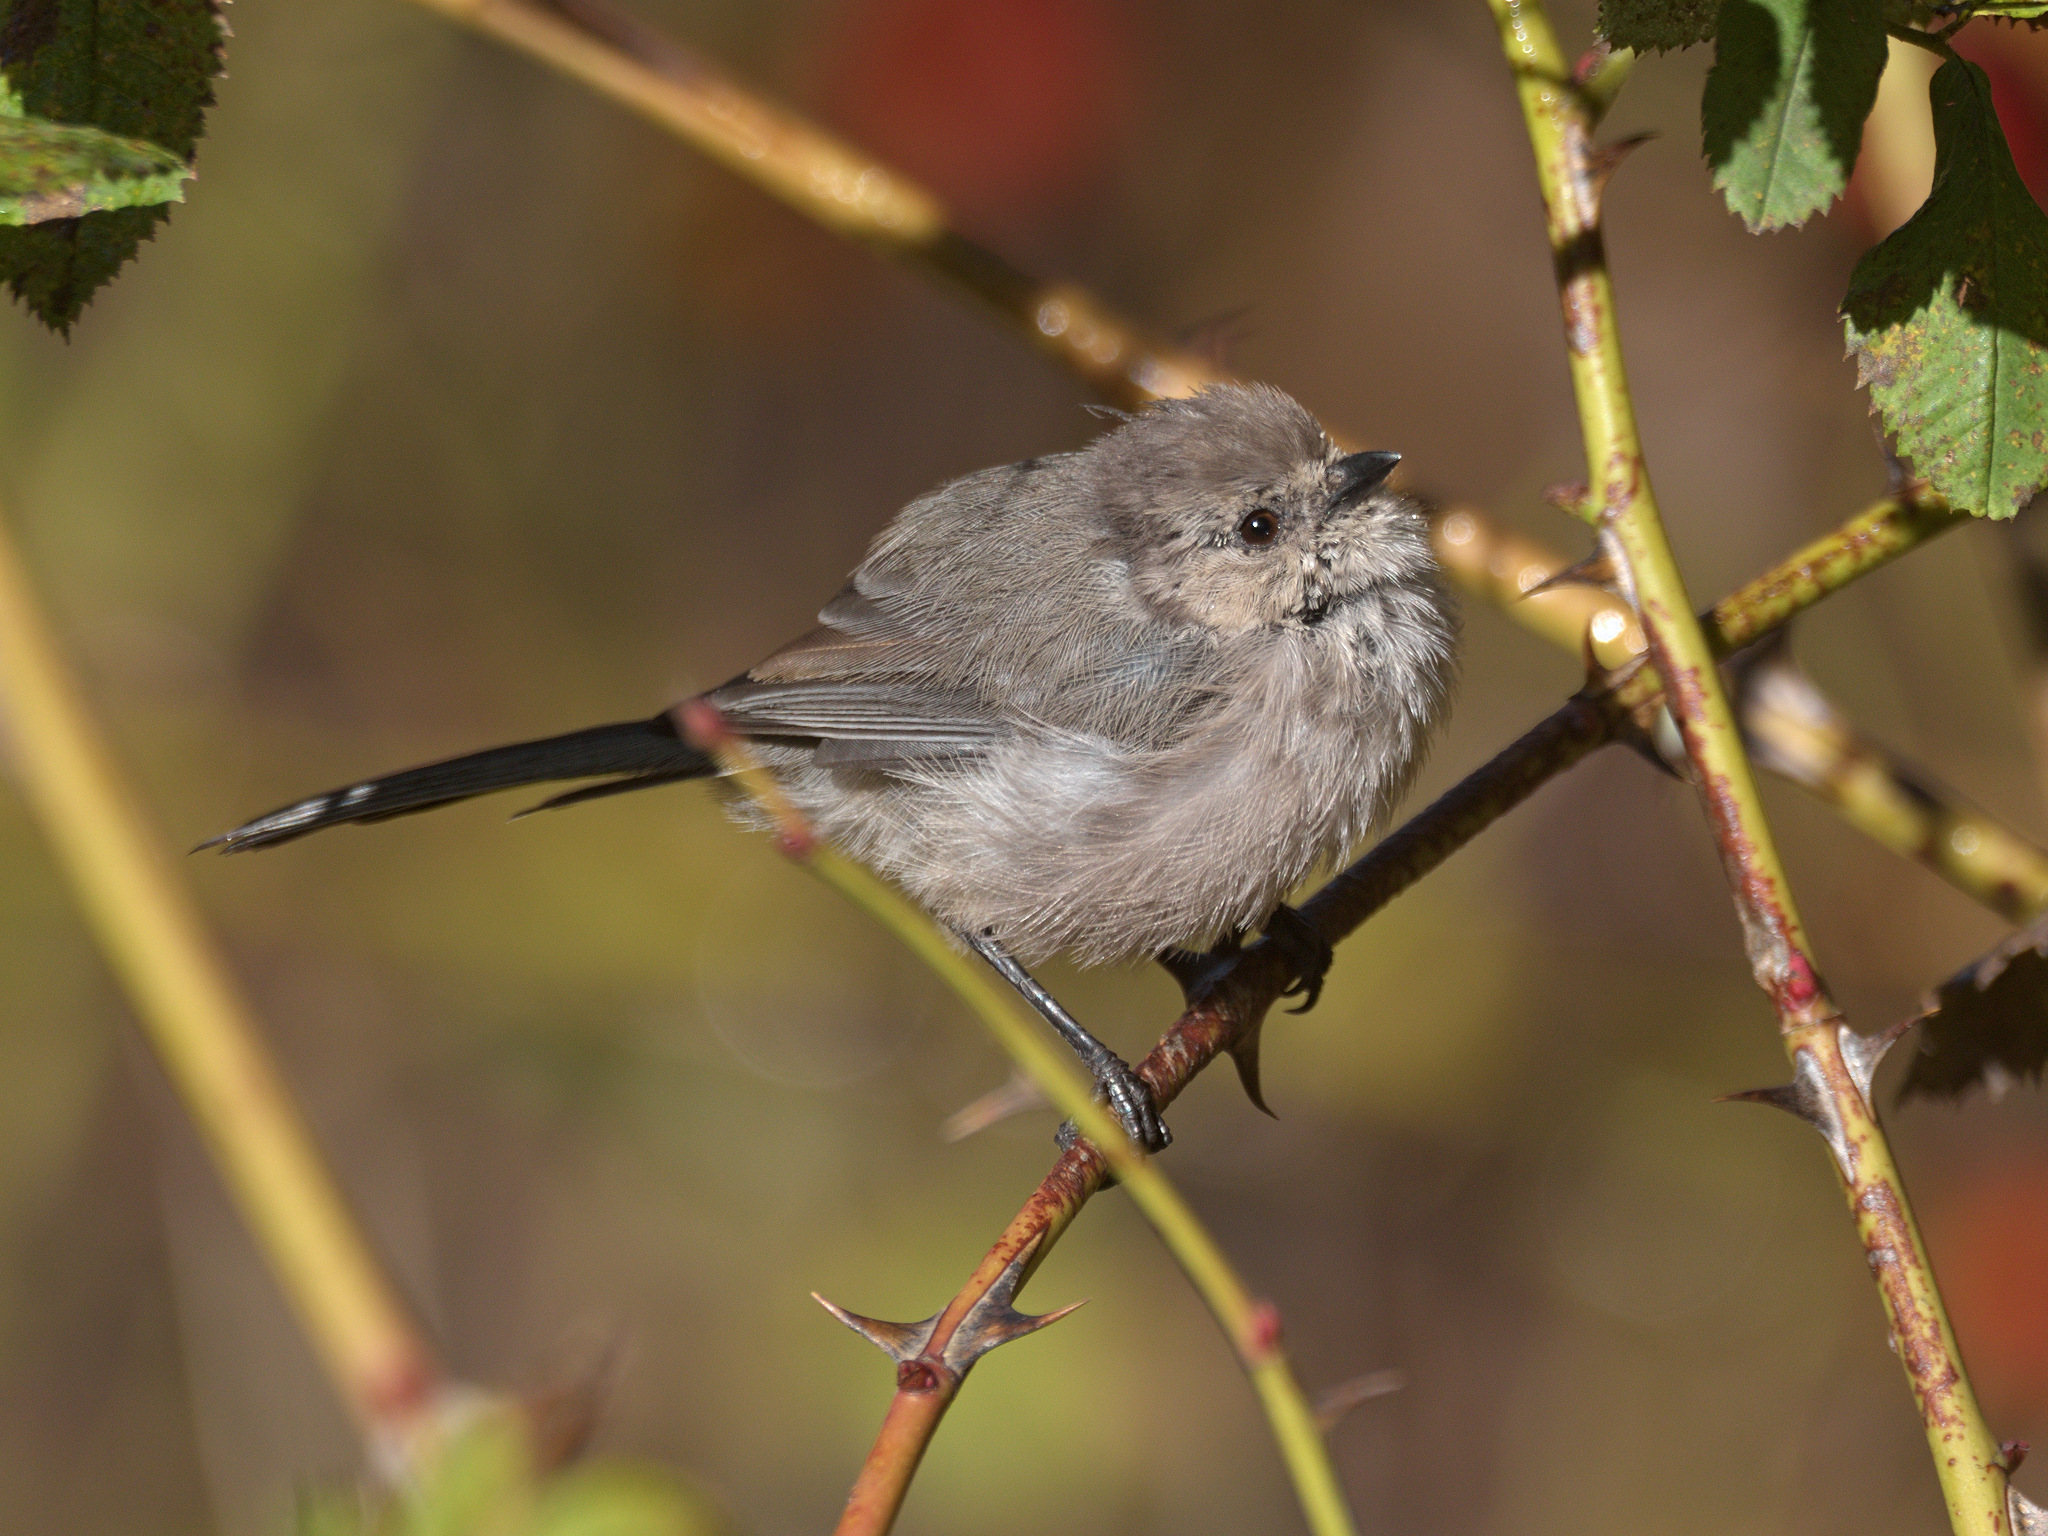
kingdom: Animalia
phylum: Chordata
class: Aves
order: Passeriformes
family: Aegithalidae
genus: Psaltriparus
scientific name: Psaltriparus minimus
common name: American bushtit
